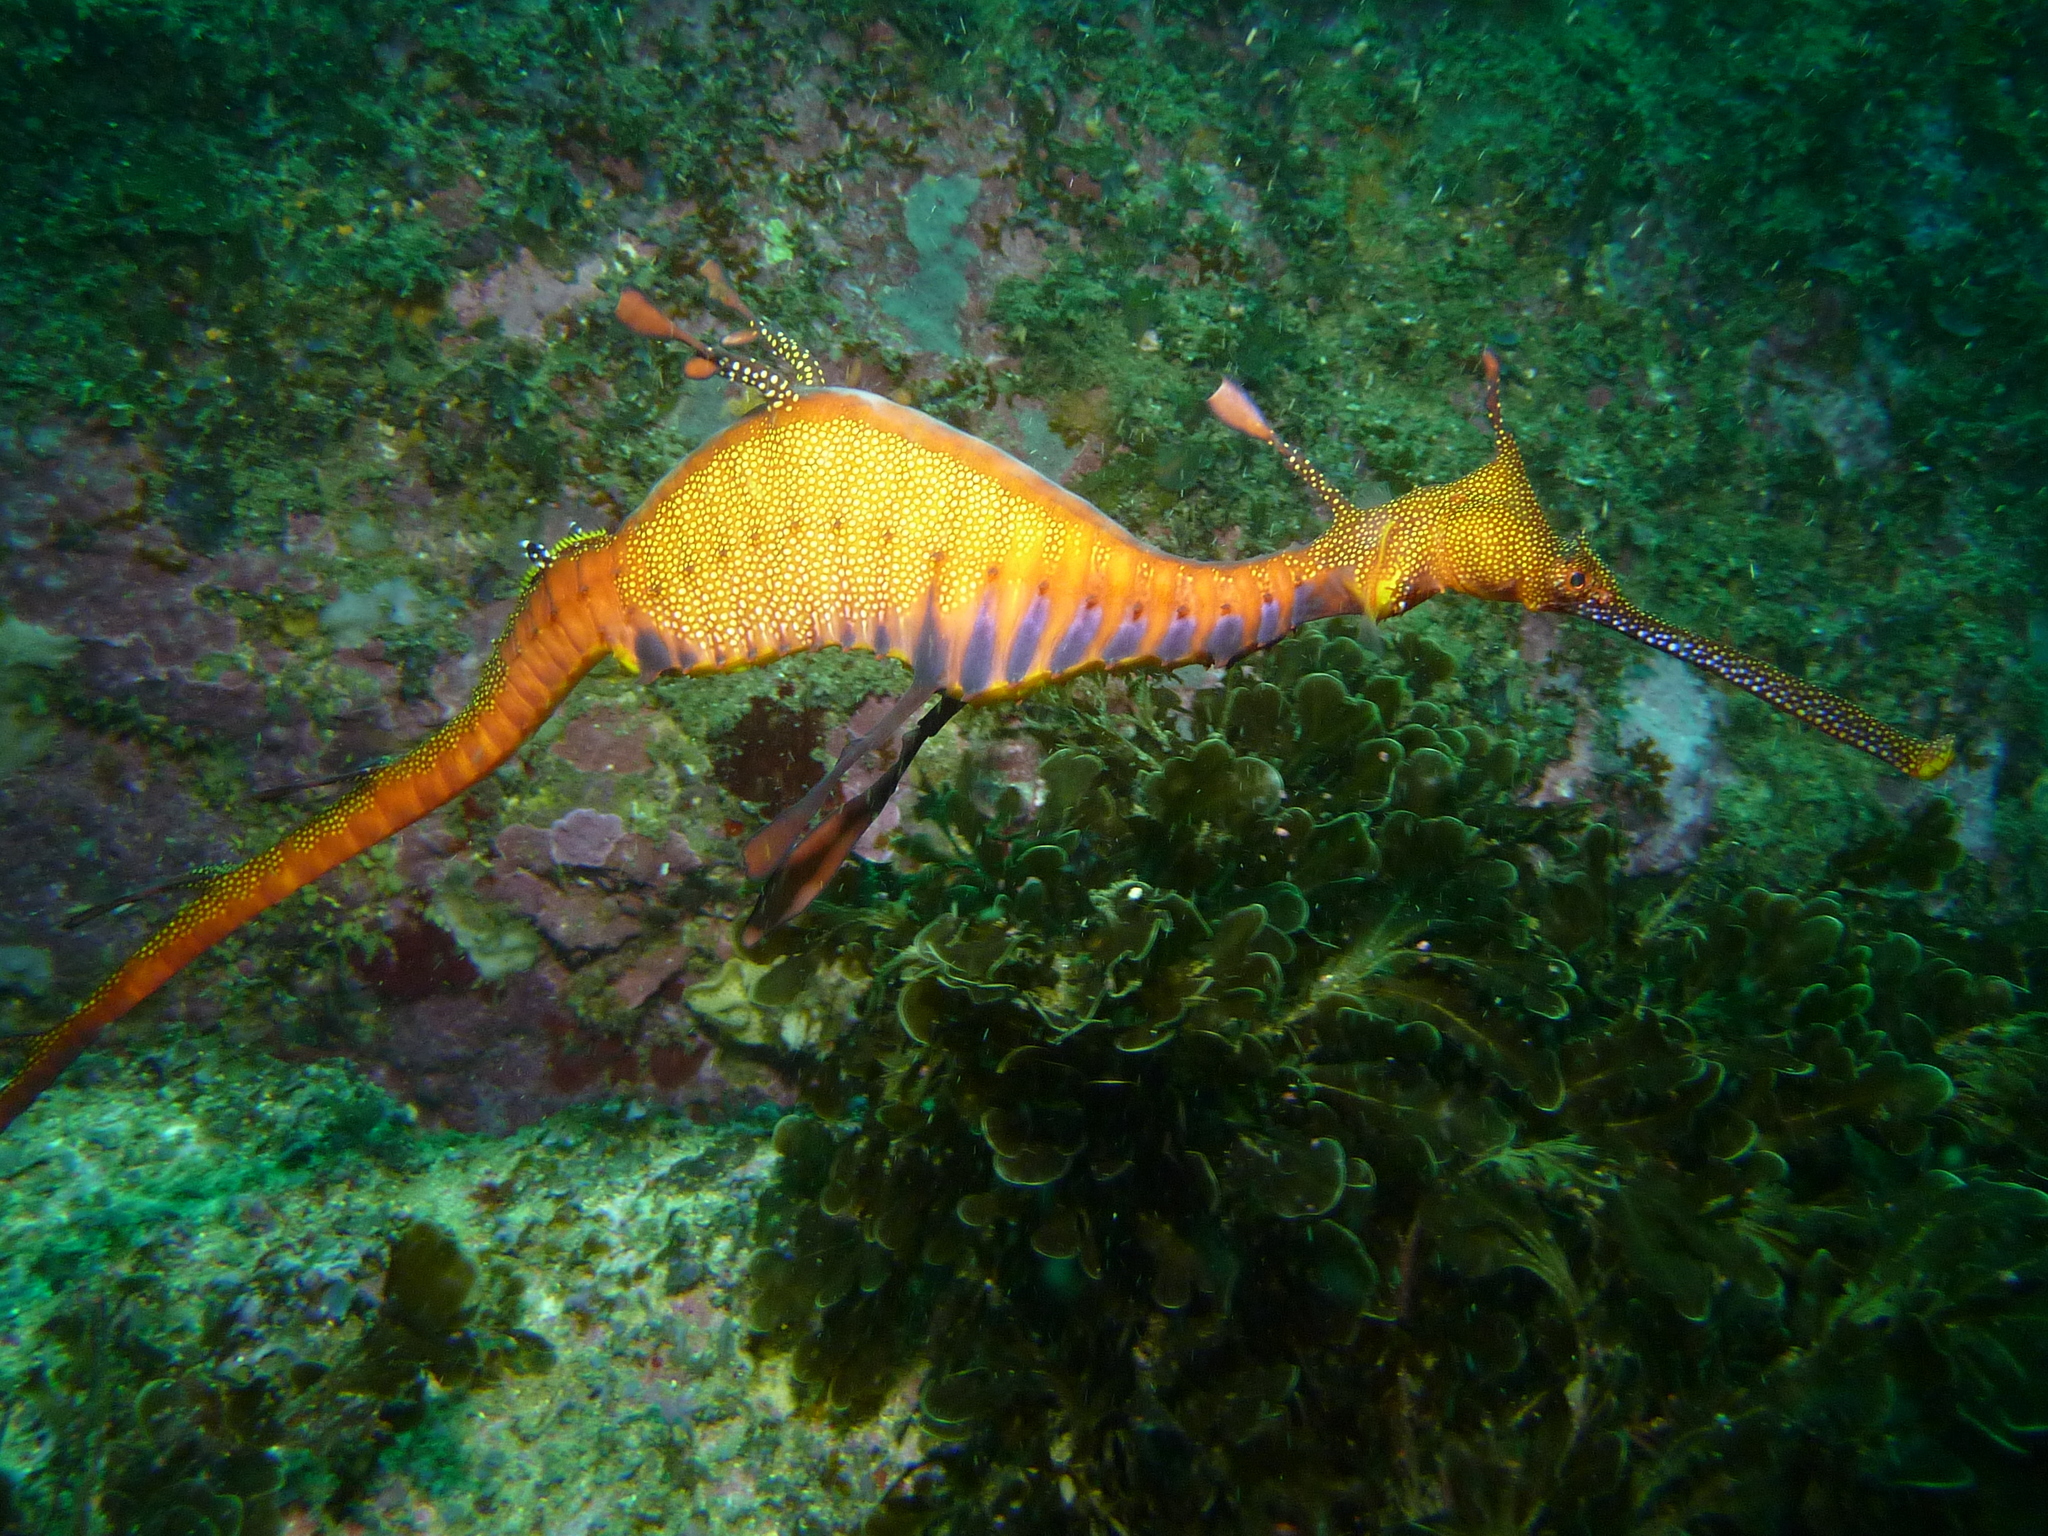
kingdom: Animalia
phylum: Chordata
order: Syngnathiformes
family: Syngnathidae
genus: Phyllopteryx
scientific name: Phyllopteryx taeniolatus
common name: Common seadragon
